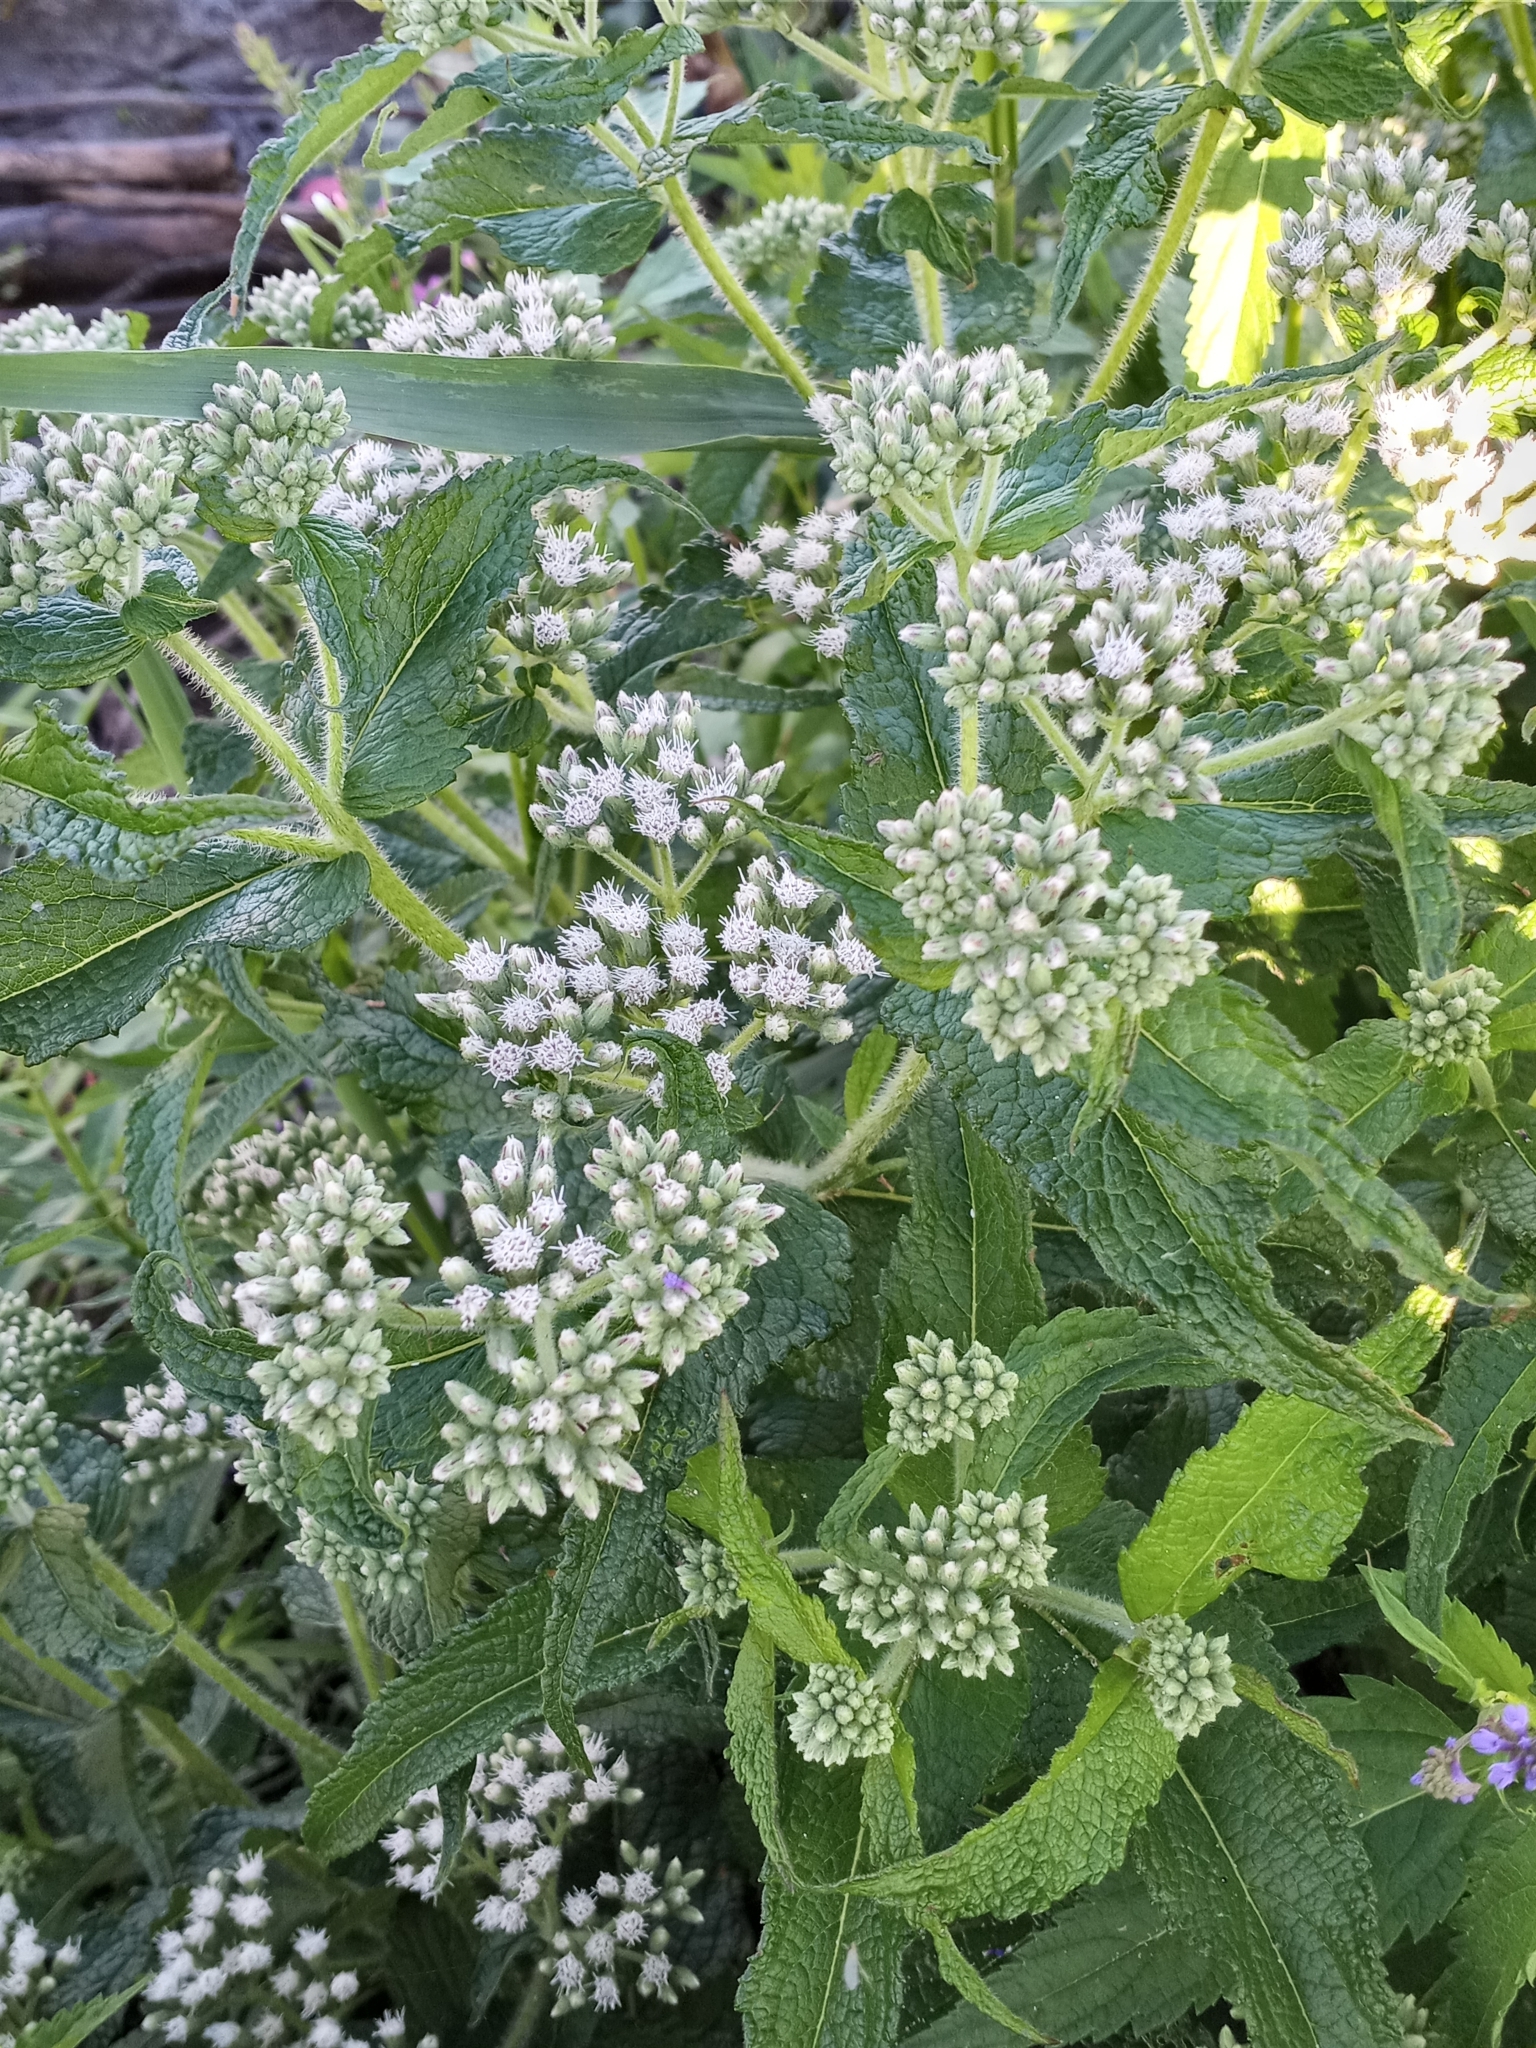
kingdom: Plantae
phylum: Tracheophyta
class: Magnoliopsida
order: Asterales
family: Asteraceae
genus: Eupatorium
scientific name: Eupatorium perfoliatum
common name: Boneset
